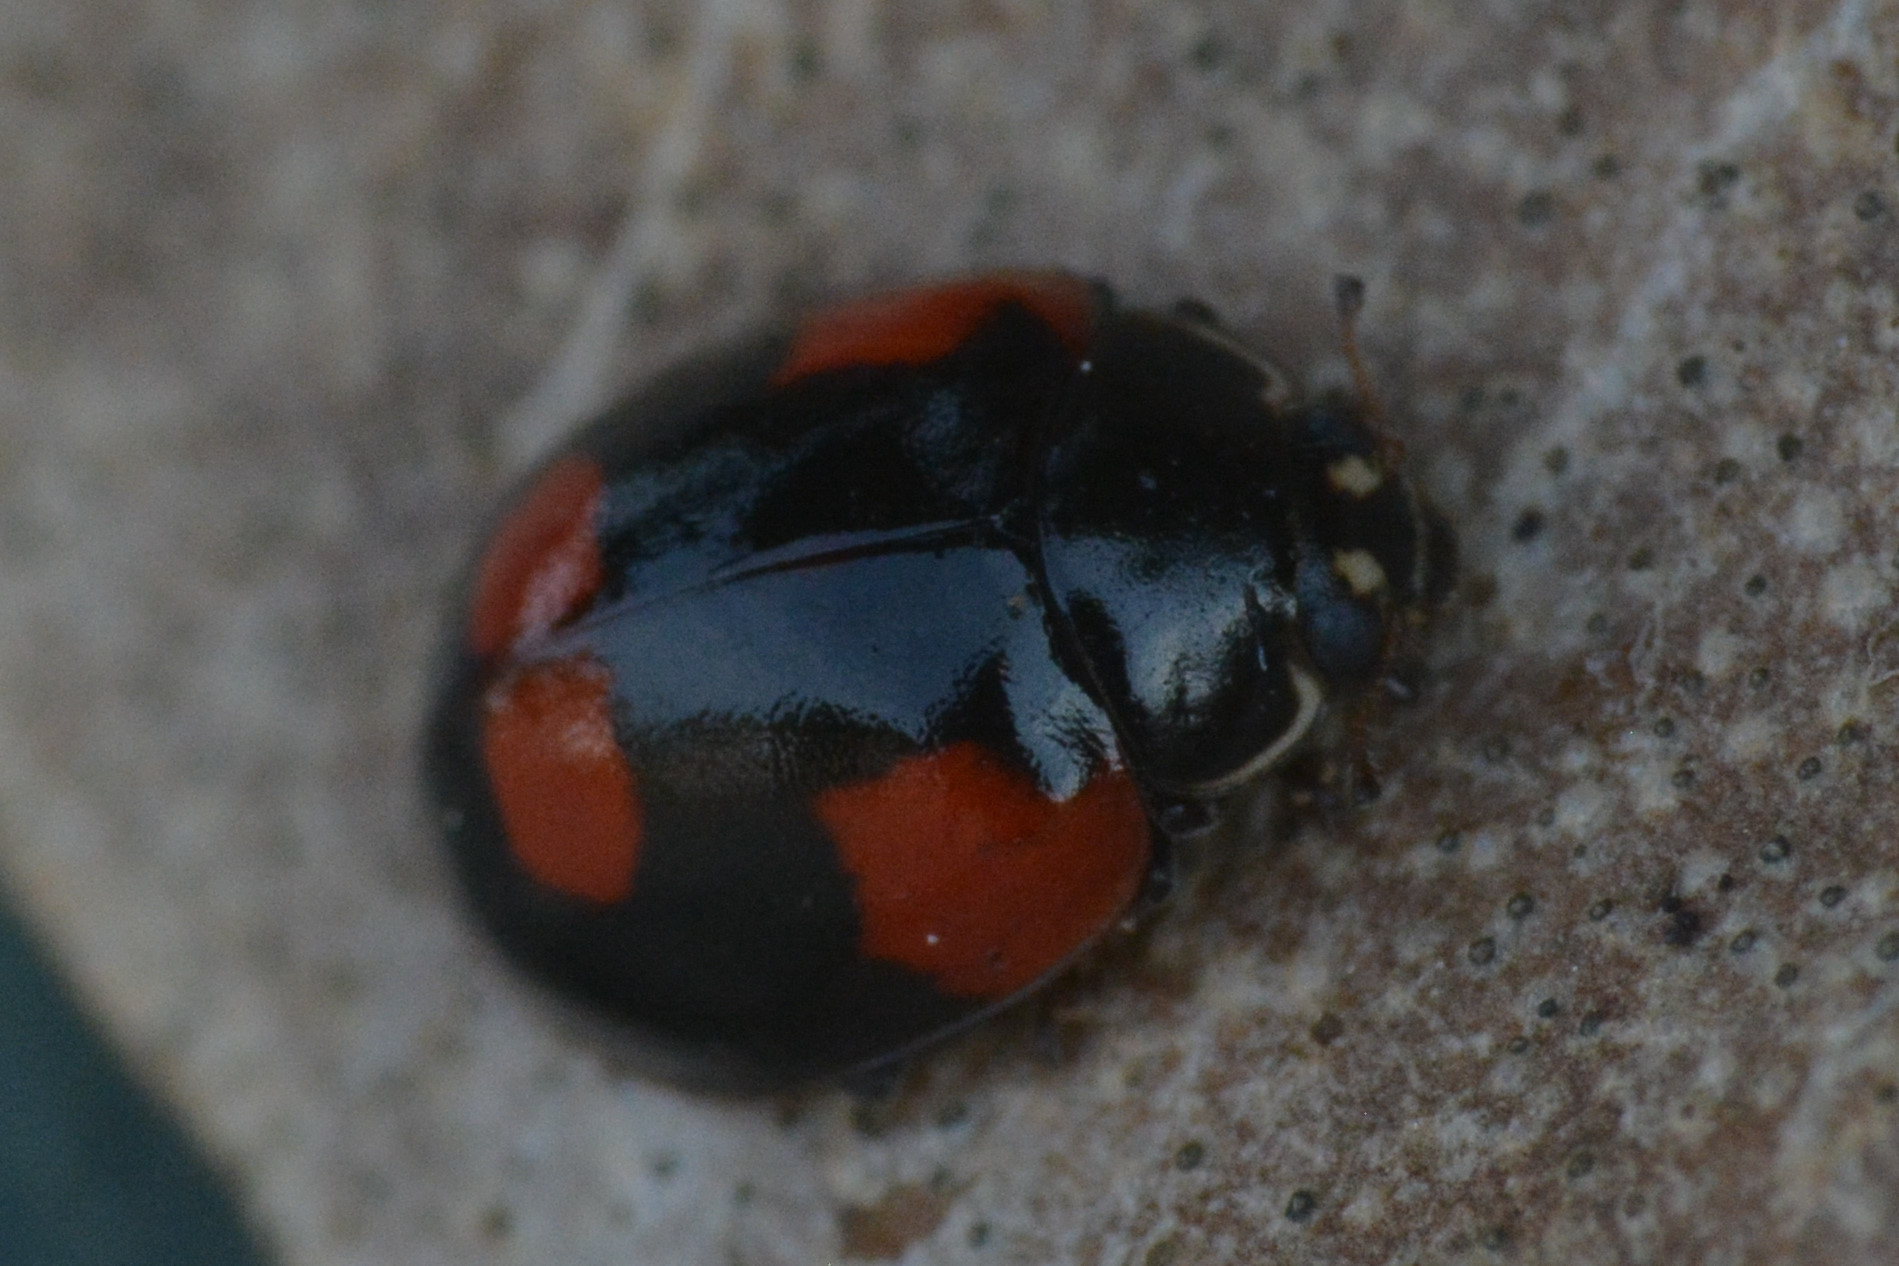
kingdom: Animalia
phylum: Arthropoda
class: Insecta
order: Coleoptera
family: Coccinellidae
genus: Adalia
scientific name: Adalia bipunctata
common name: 2-spot ladybird
